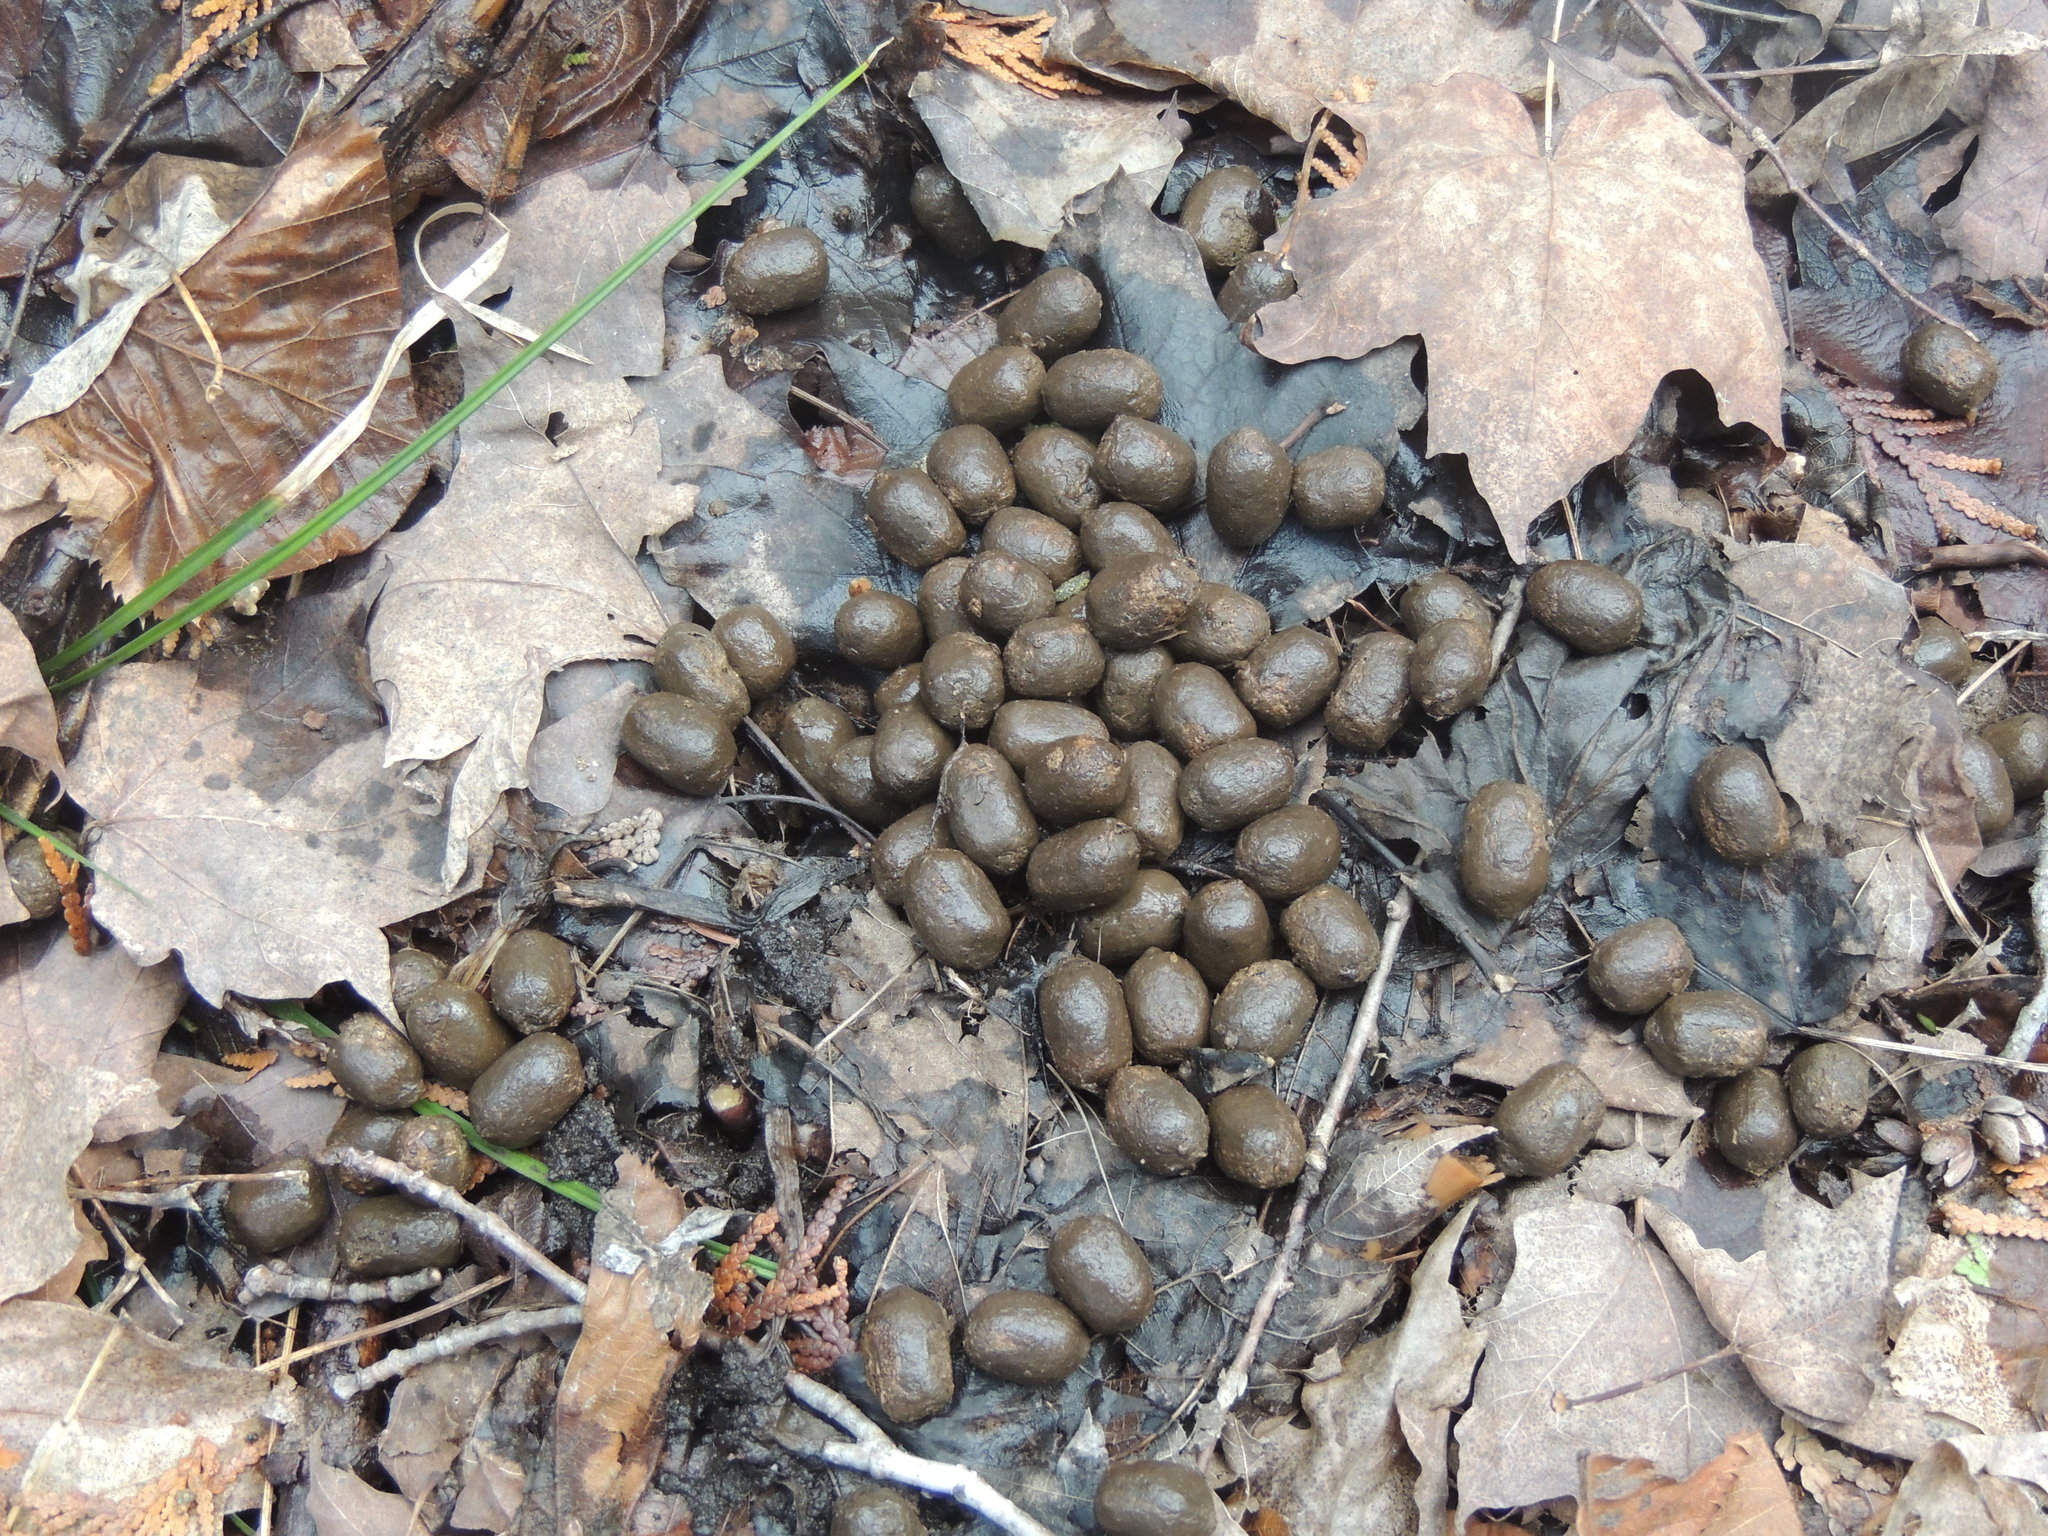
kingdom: Animalia
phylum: Chordata
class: Mammalia
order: Artiodactyla
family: Cervidae
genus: Odocoileus
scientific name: Odocoileus virginianus
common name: White-tailed deer
